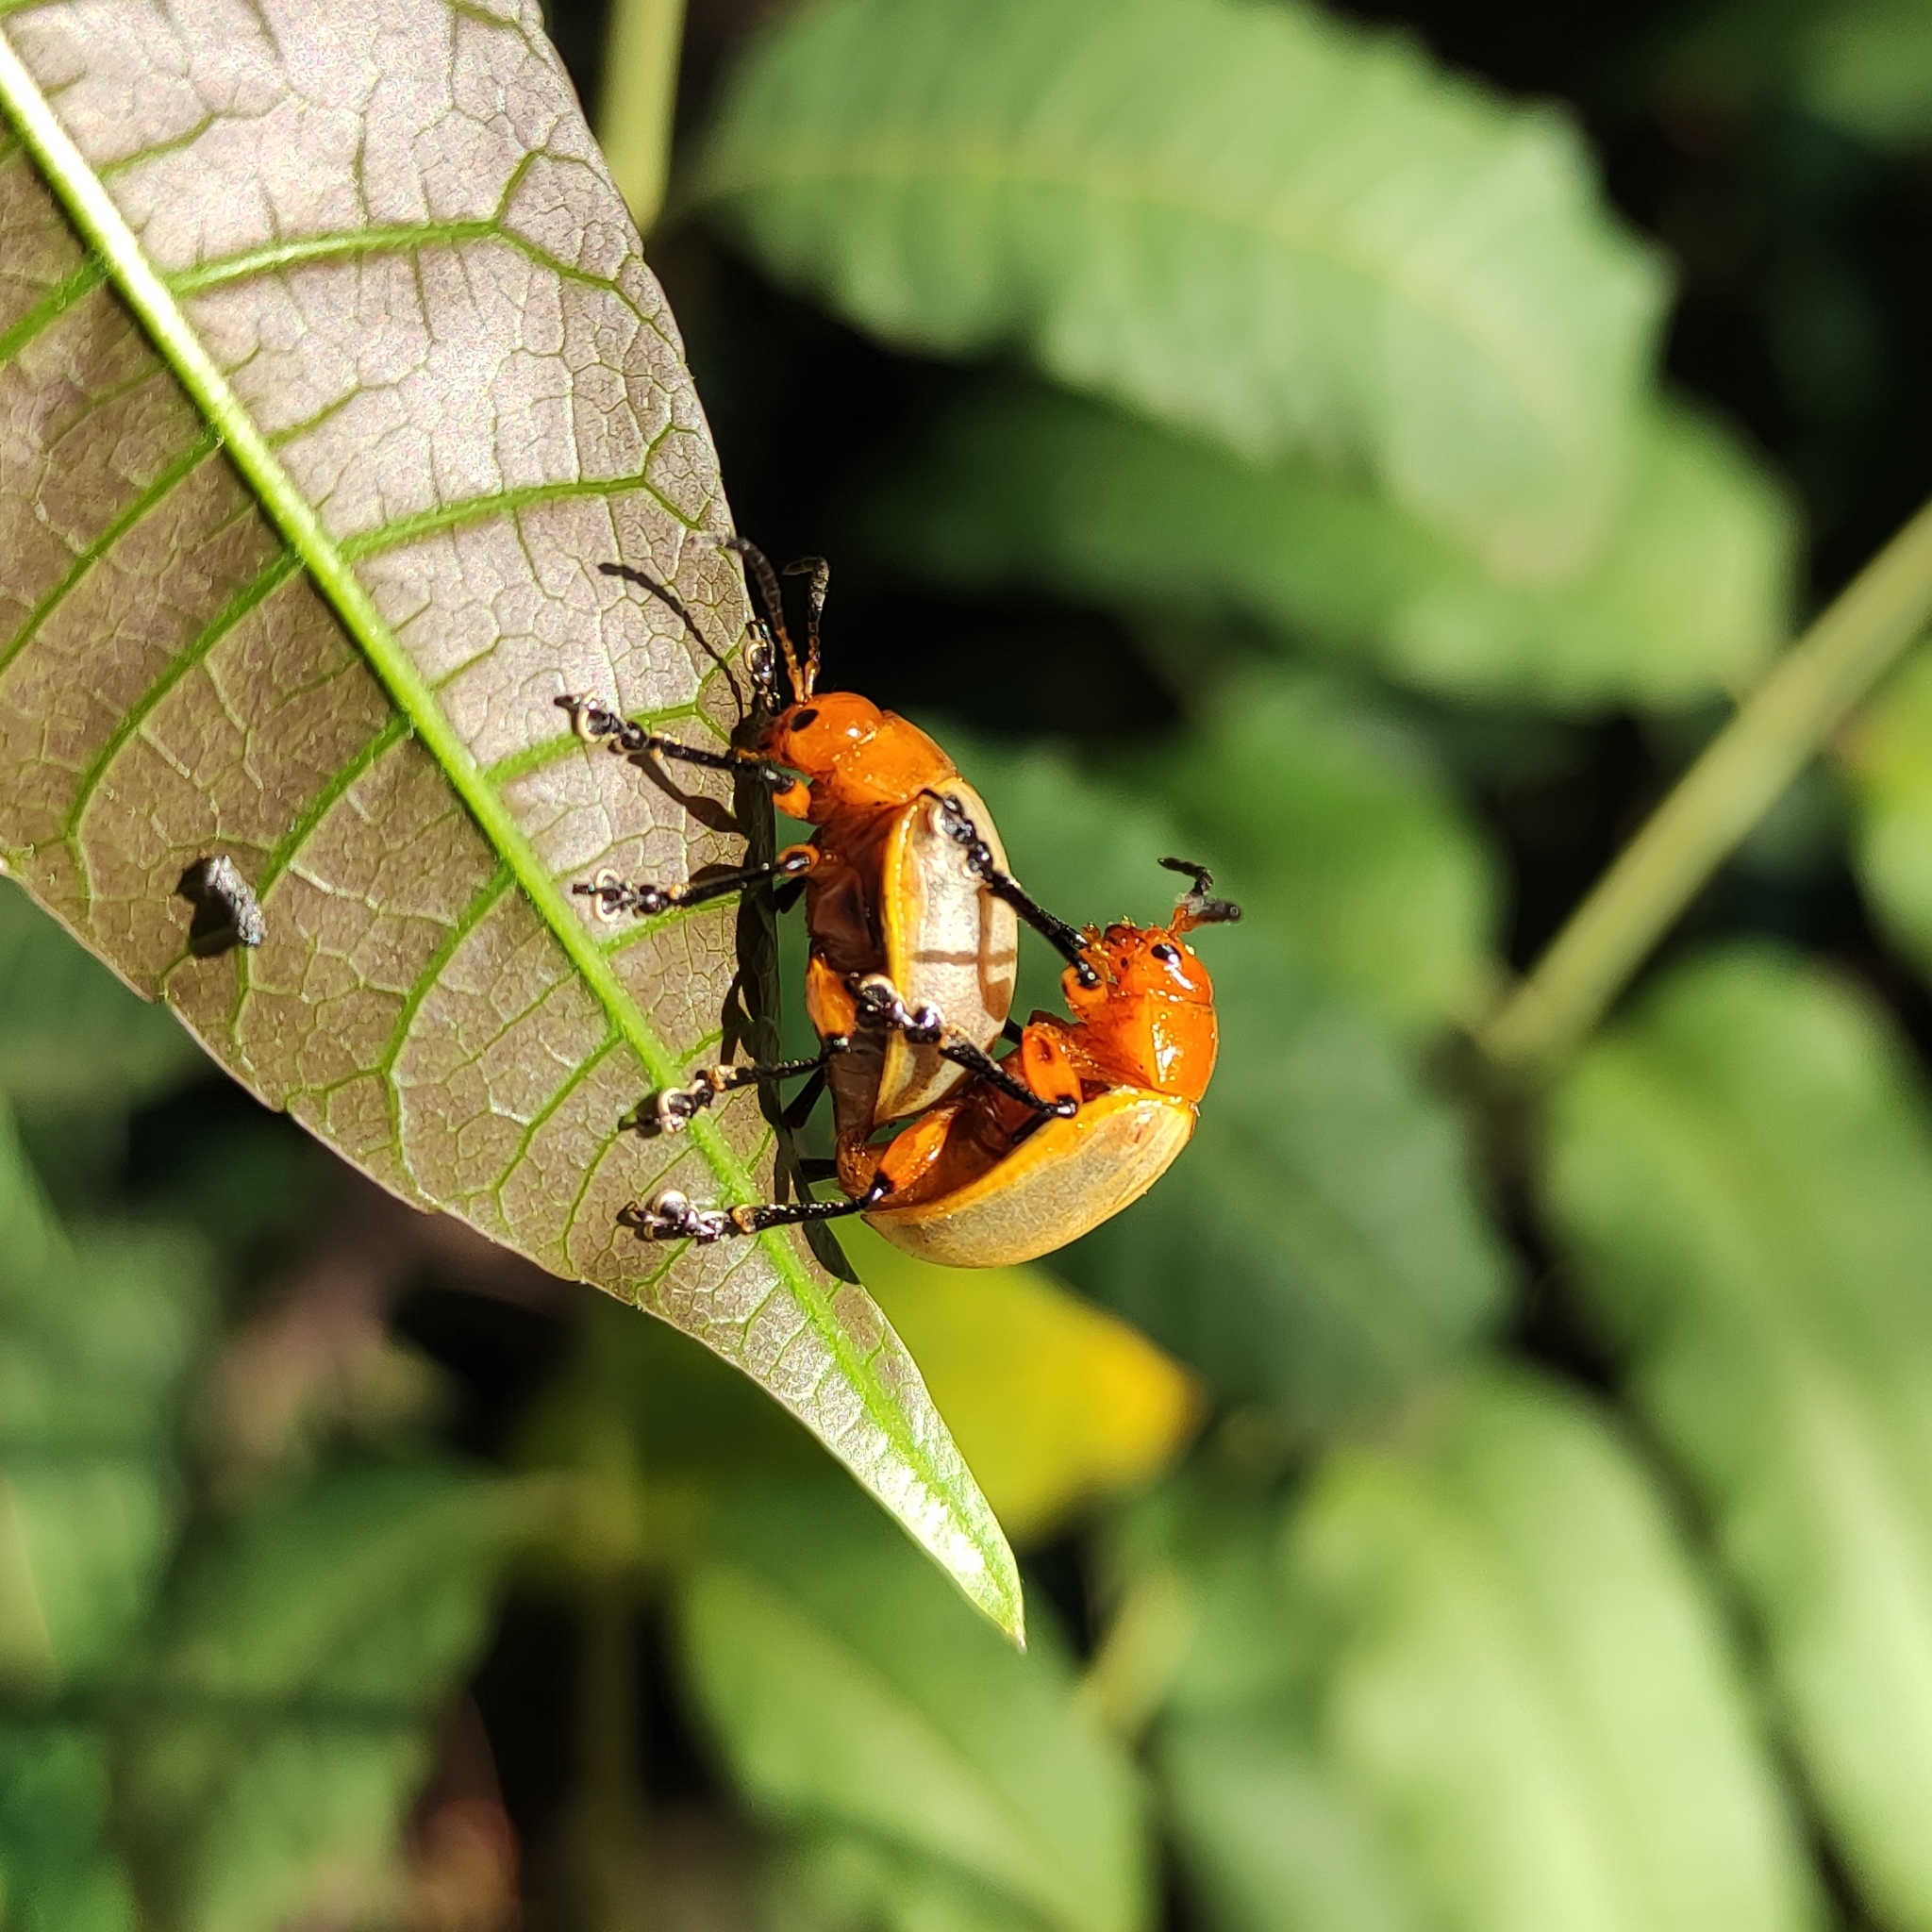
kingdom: Animalia
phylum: Arthropoda
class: Insecta
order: Coleoptera
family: Chrysomelidae
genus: Crimissa
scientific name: Crimissa
